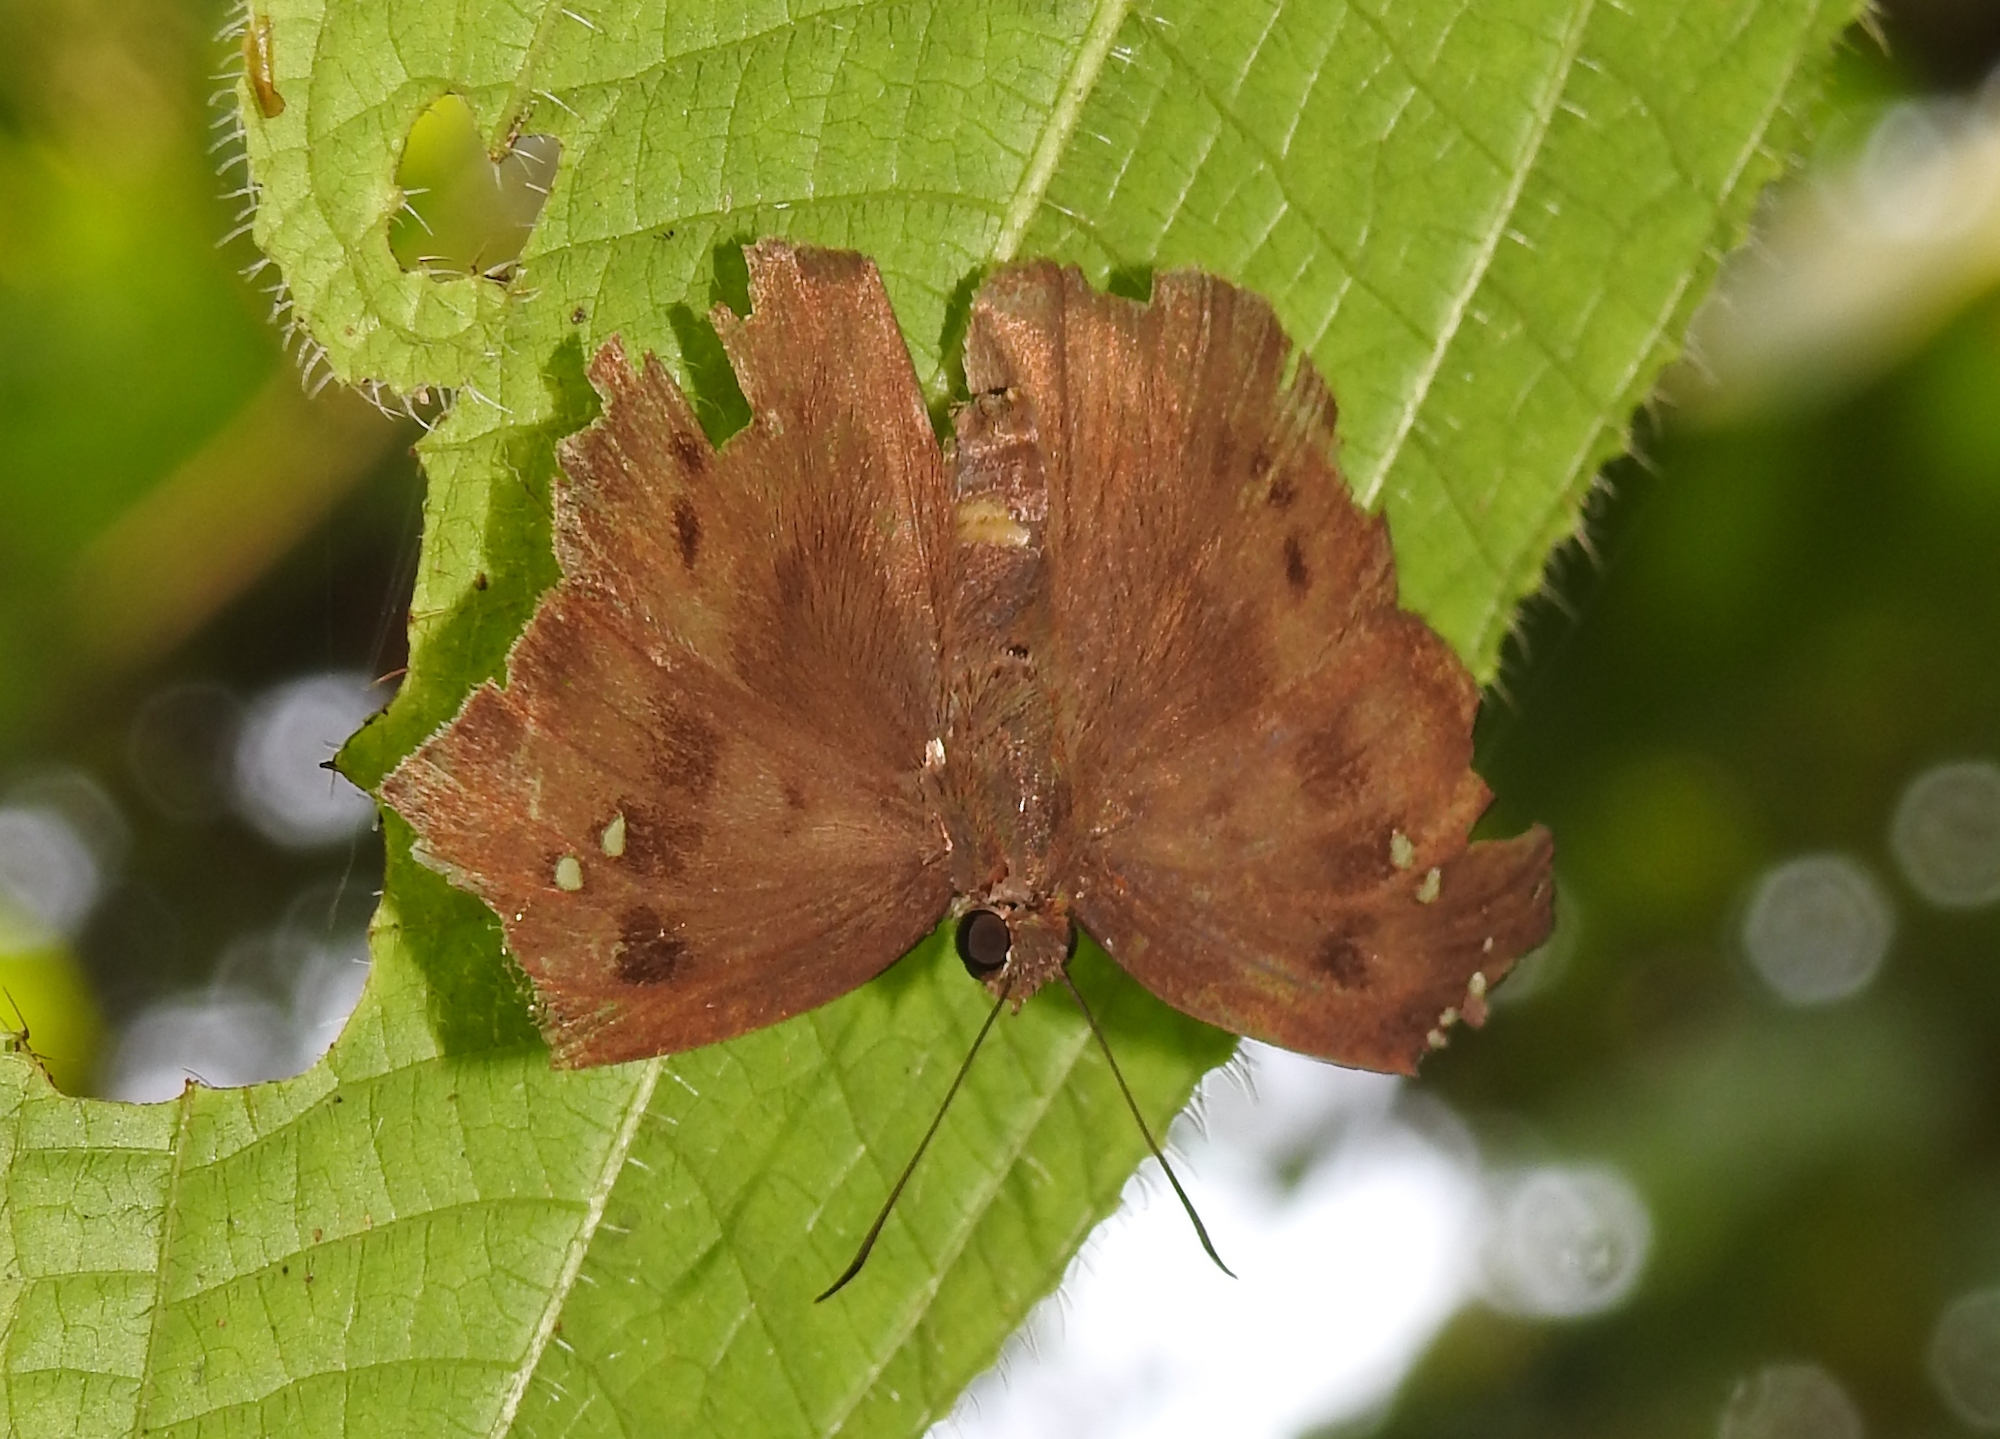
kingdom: Animalia
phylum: Arthropoda
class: Insecta
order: Lepidoptera
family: Hesperiidae
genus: Tagiades
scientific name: Tagiades japetus
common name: Pied flat
